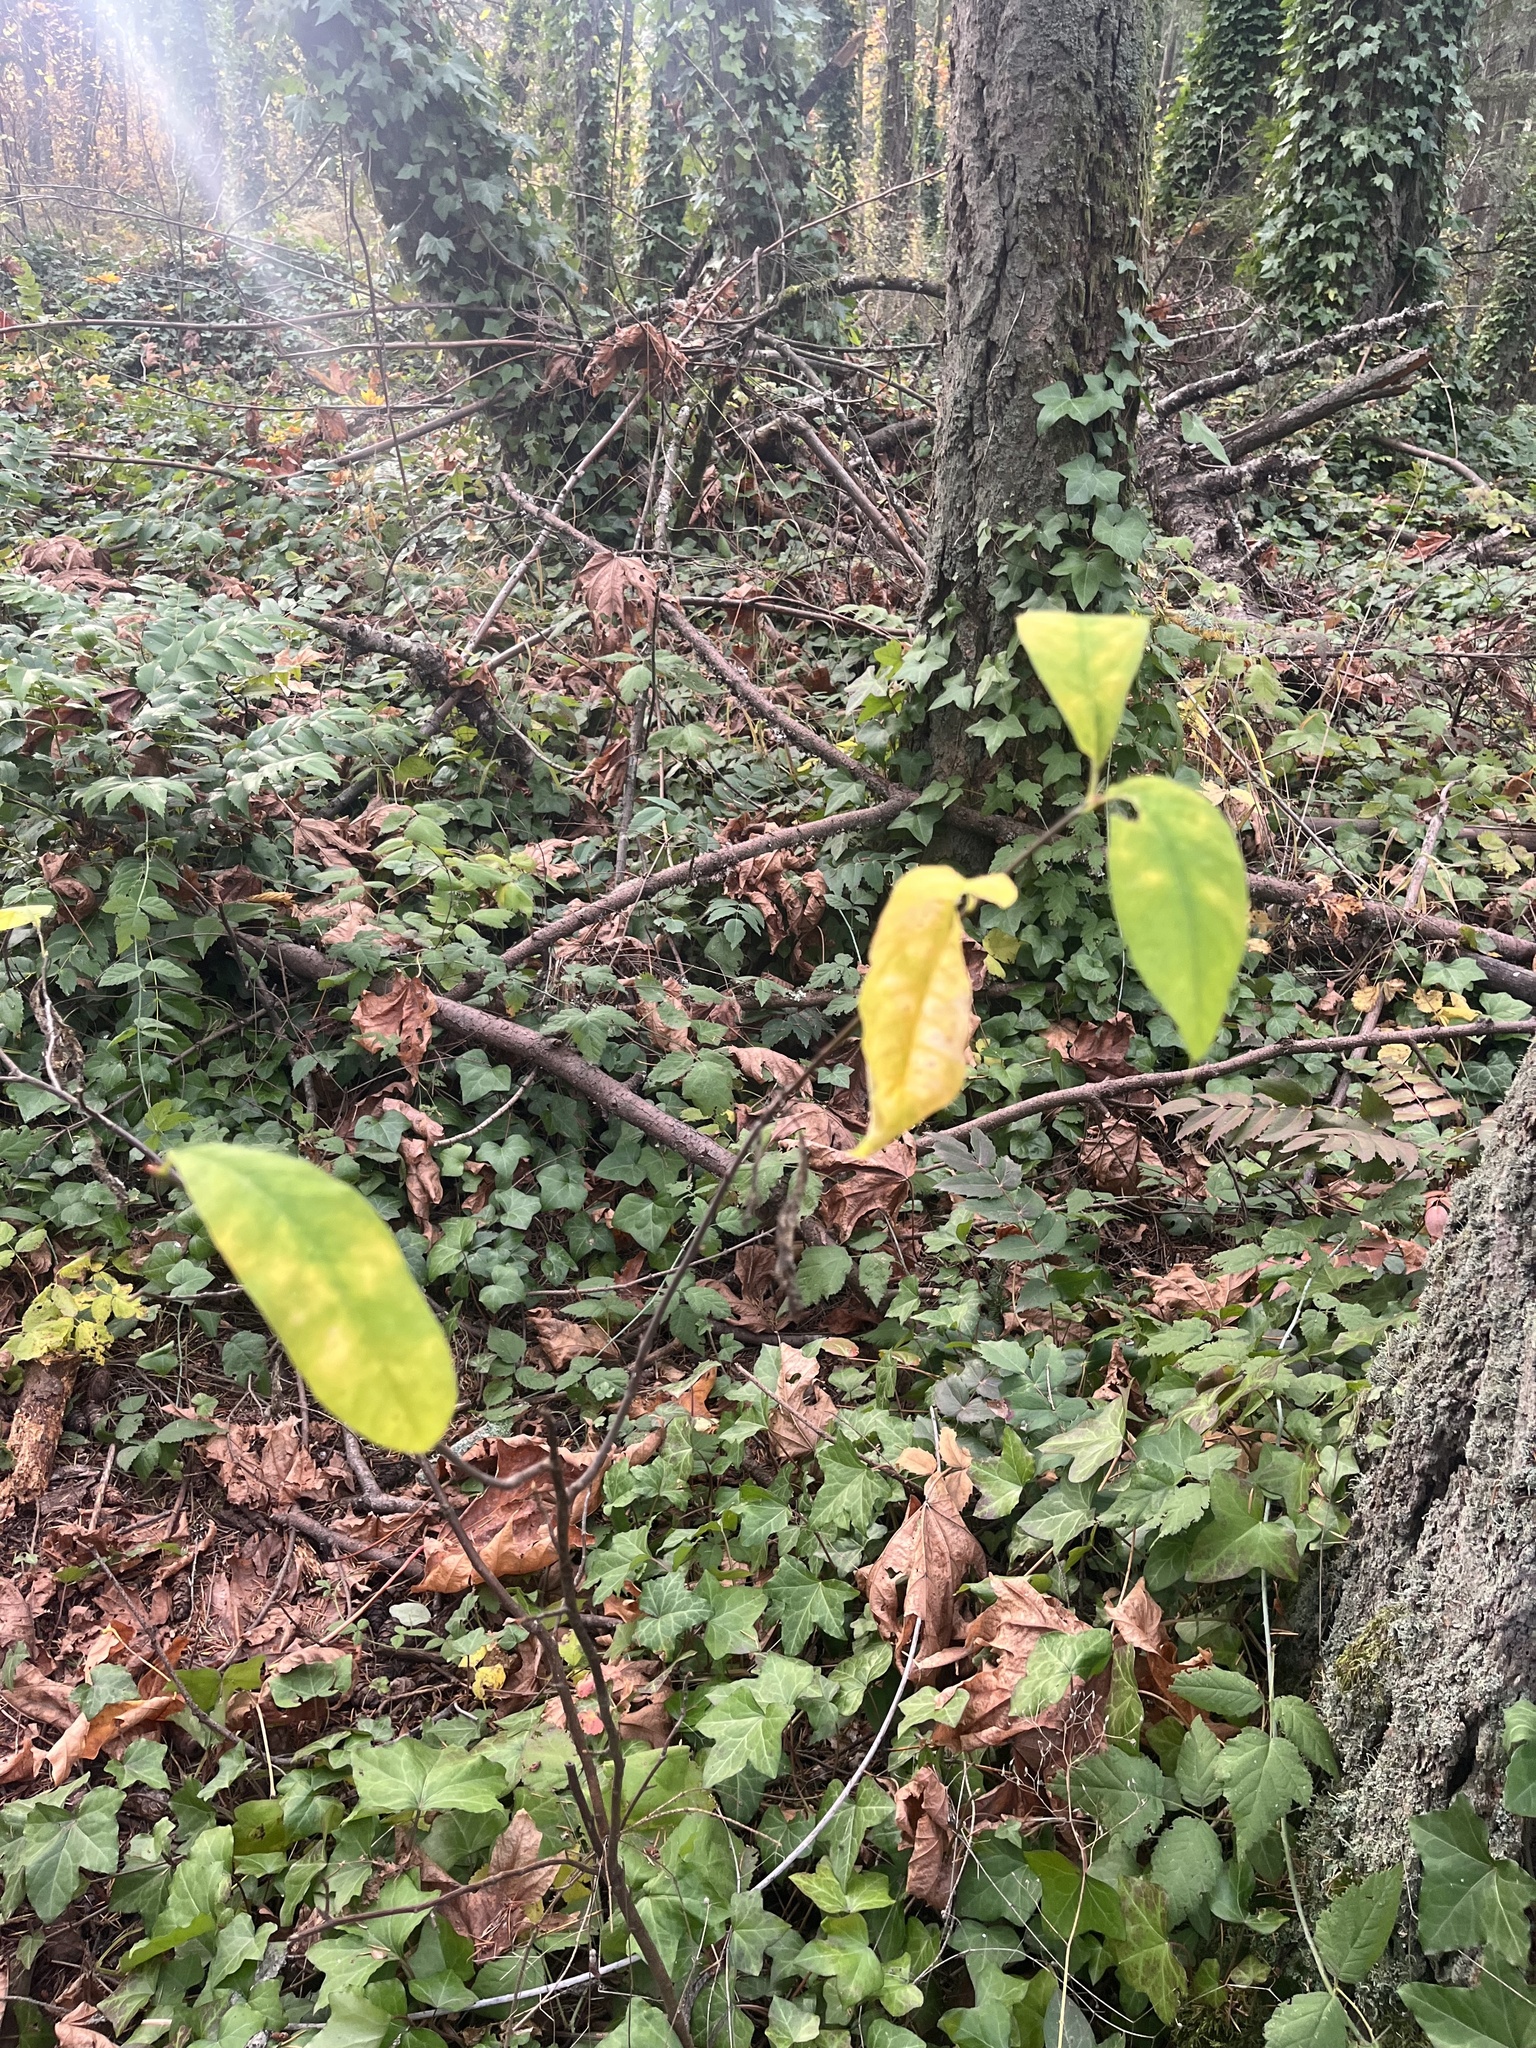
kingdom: Plantae
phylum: Tracheophyta
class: Magnoliopsida
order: Rosales
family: Rosaceae
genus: Oemleria
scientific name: Oemleria cerasiformis
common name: Osoberry
